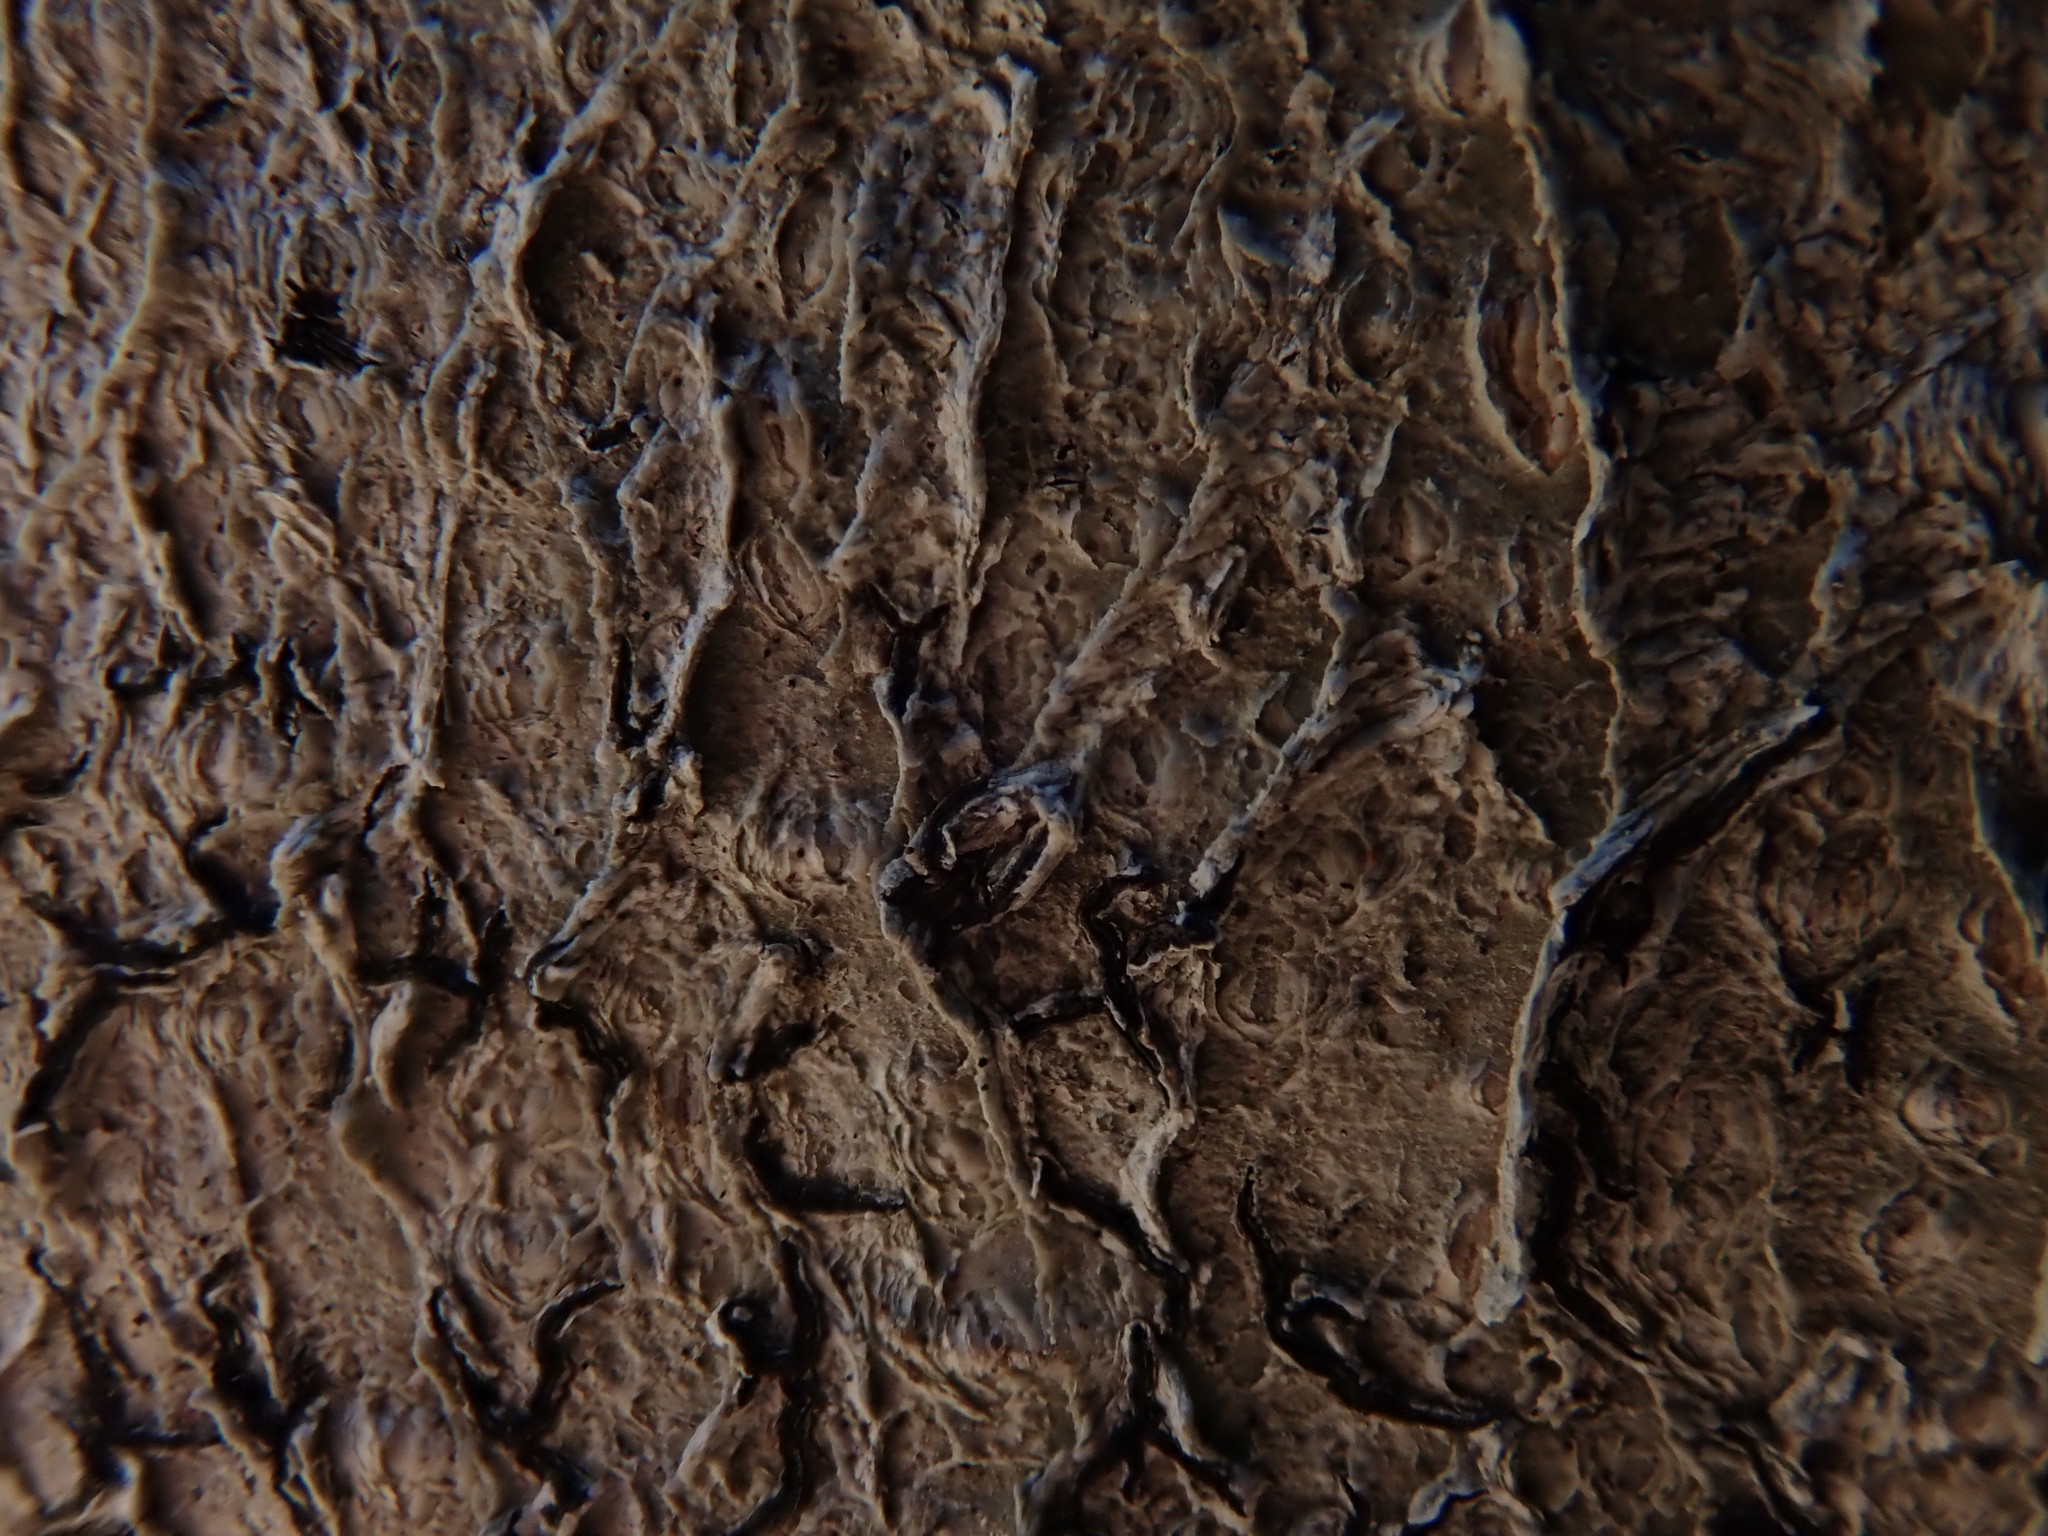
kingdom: Fungi
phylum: Ascomycota
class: Lecanoromycetes
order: Ostropales
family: Graphidaceae
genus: Graphis
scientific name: Graphis scripta
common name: Script lichen
